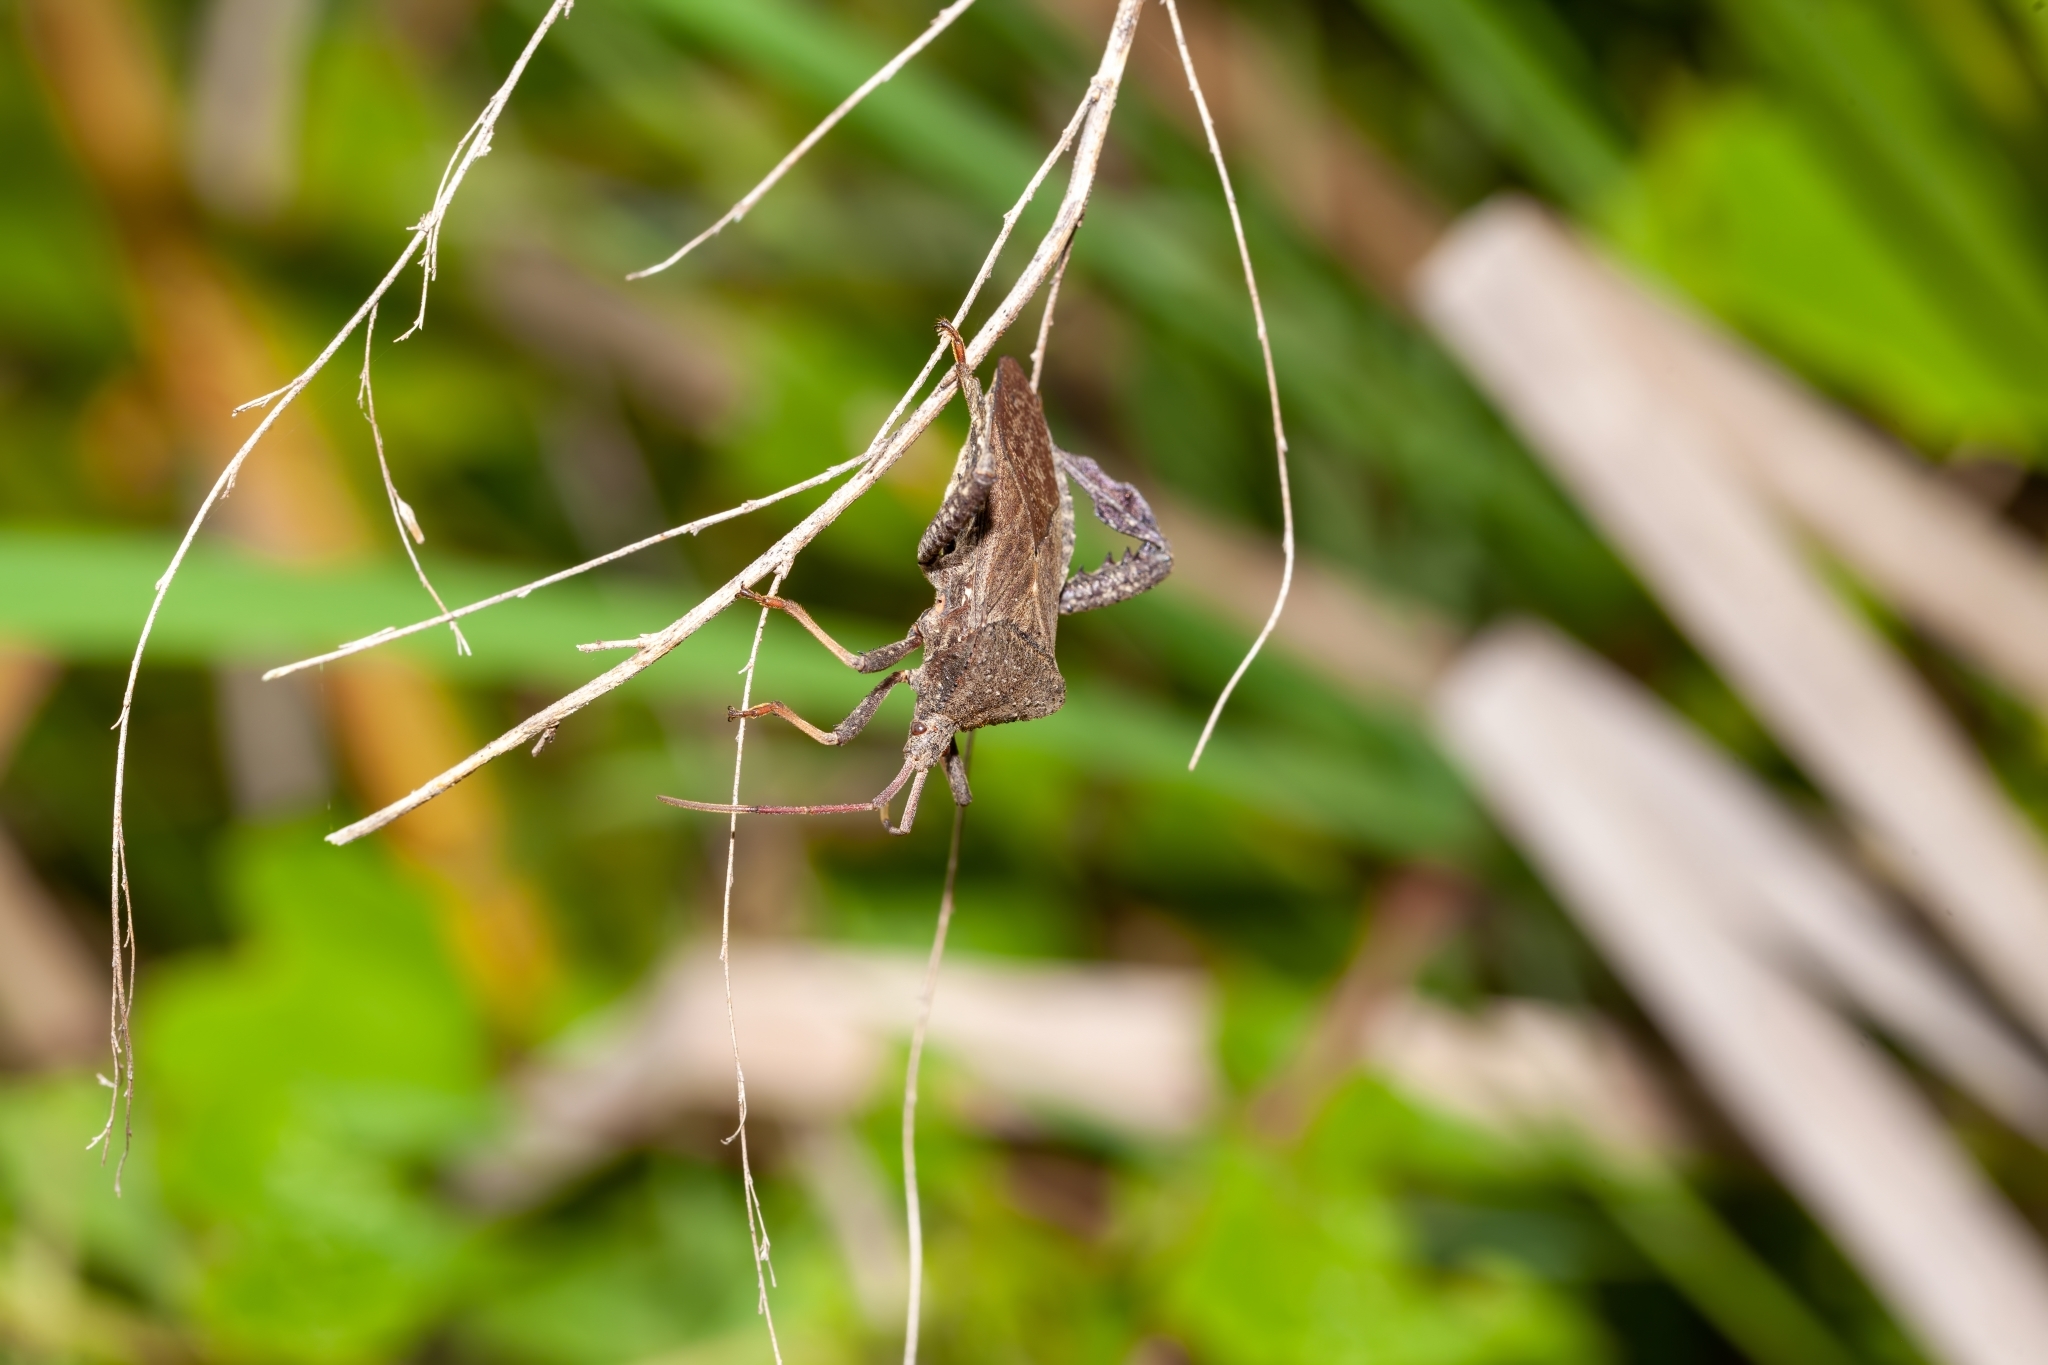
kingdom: Animalia
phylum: Arthropoda
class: Insecta
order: Hemiptera
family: Coreidae
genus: Acanthocephala
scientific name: Acanthocephala femorata
